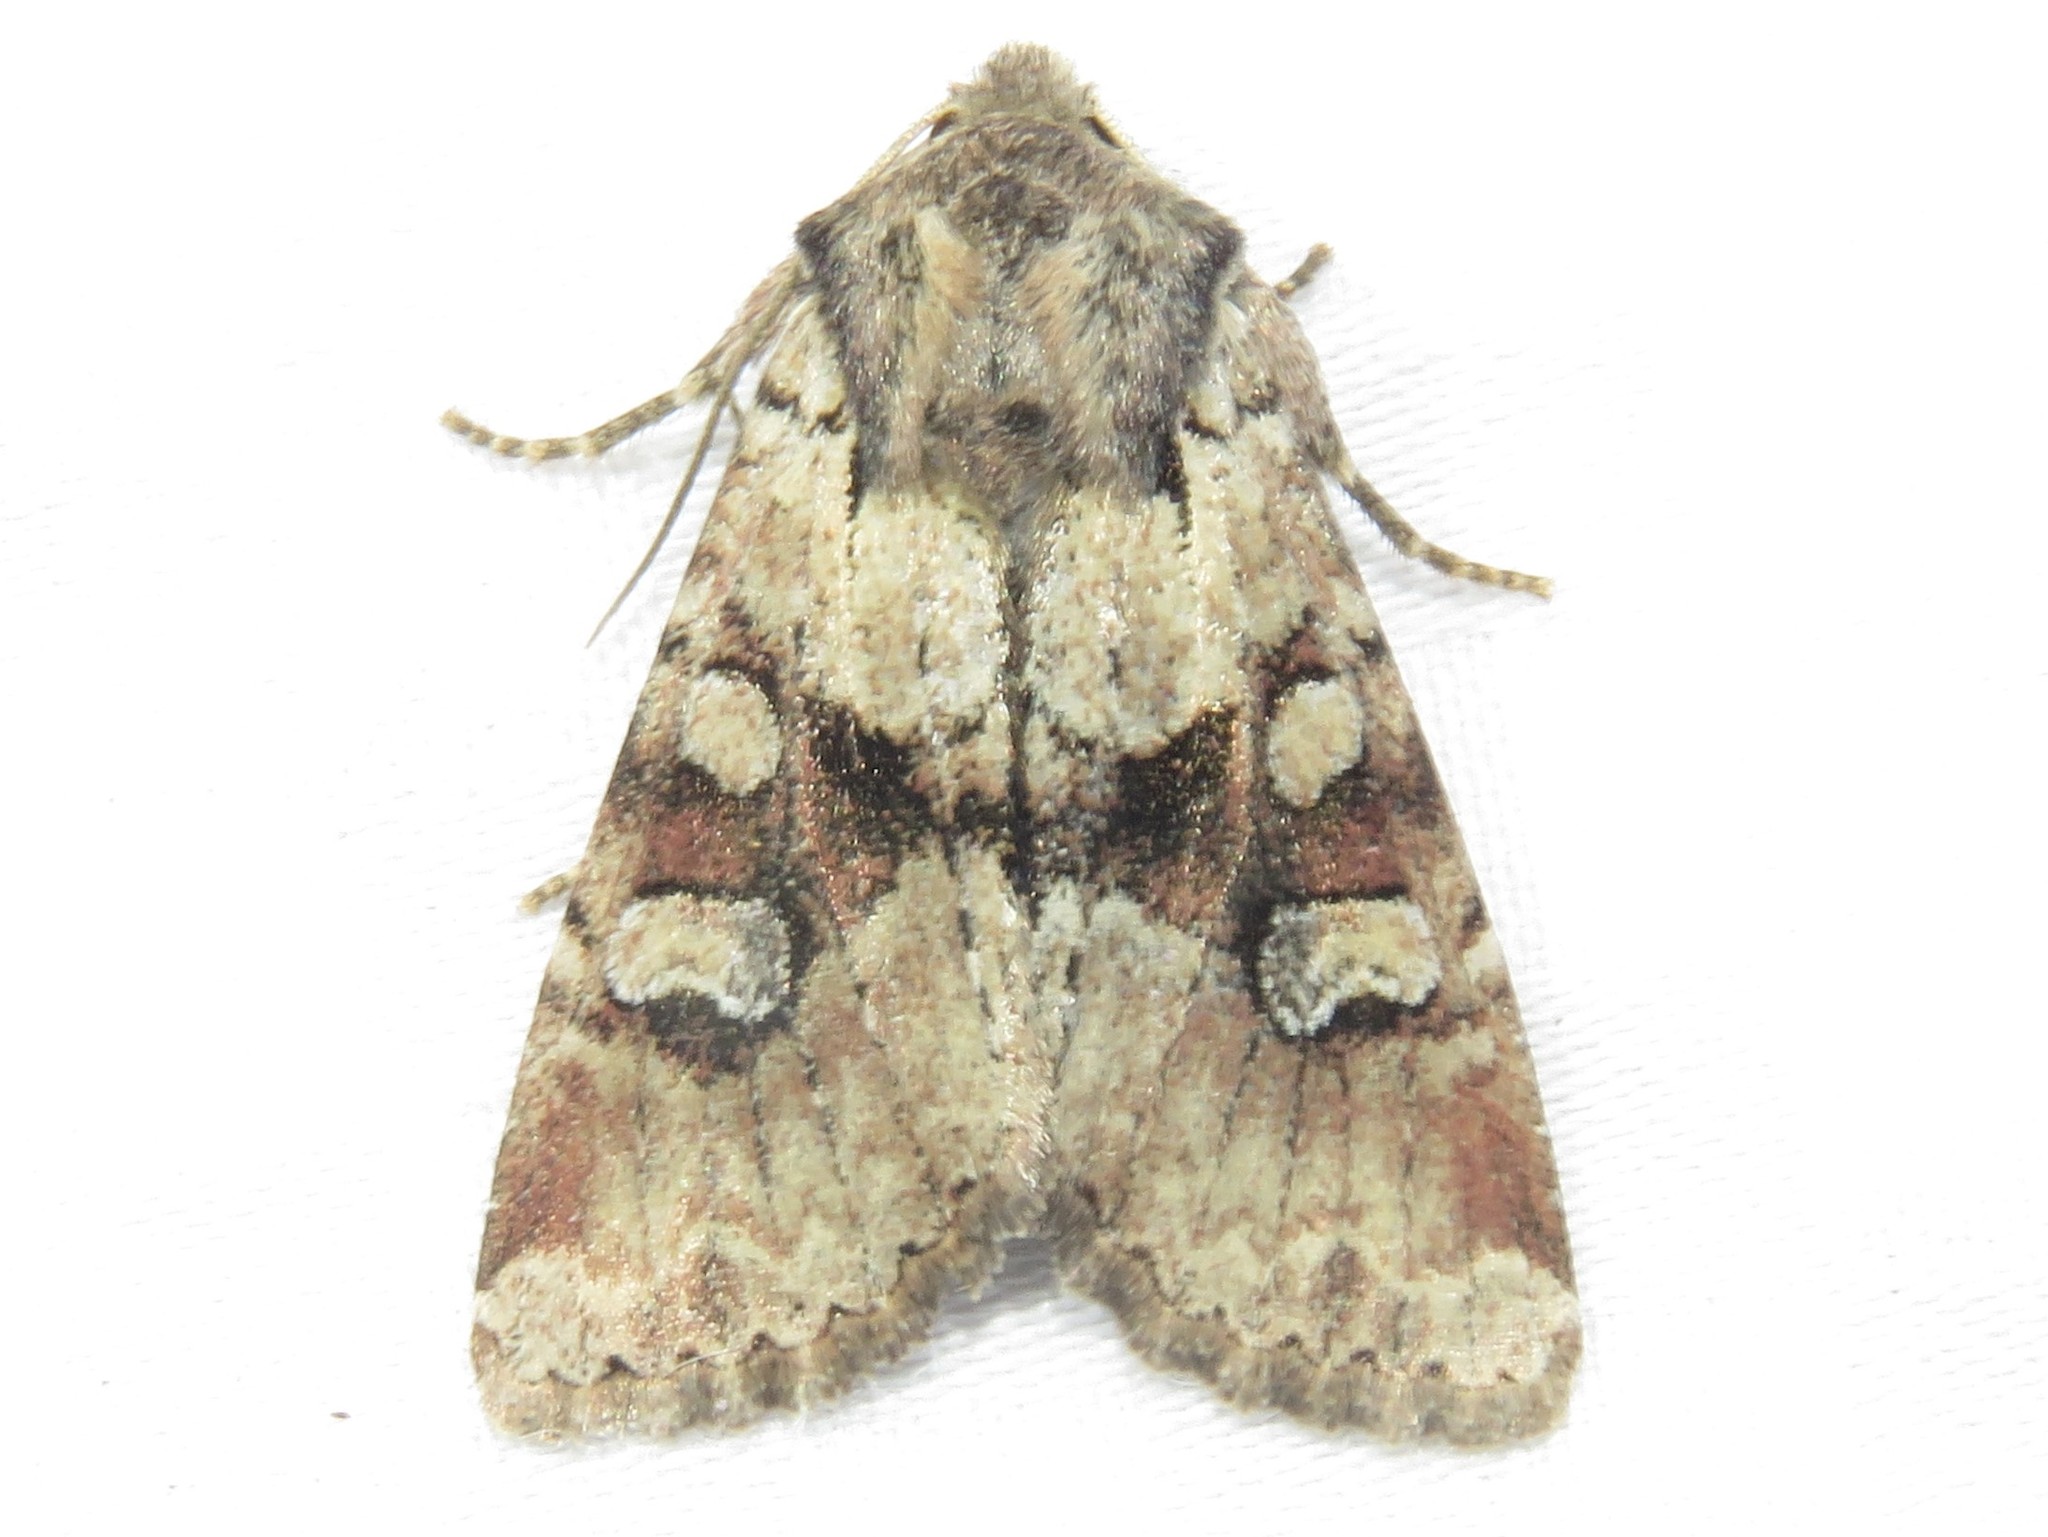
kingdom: Animalia
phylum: Arthropoda
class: Insecta
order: Lepidoptera
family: Noctuidae
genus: Apamea
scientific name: Apamea sordens
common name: Rustic shoulder-knot
